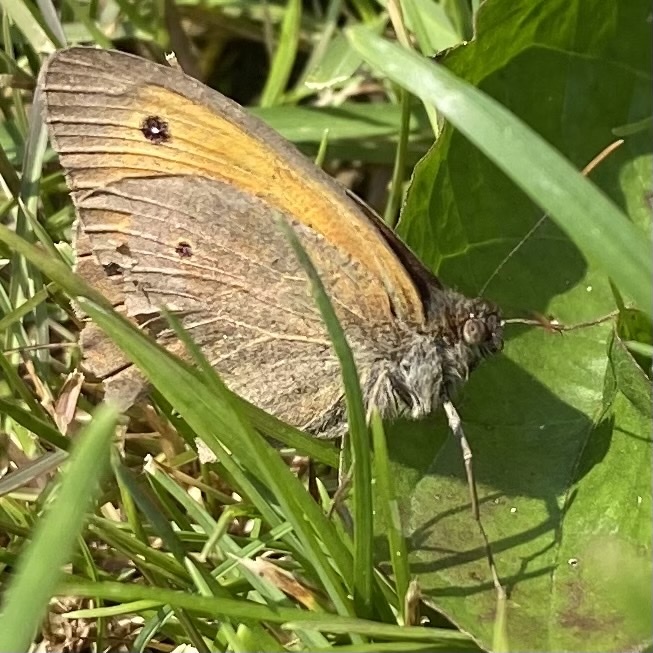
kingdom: Animalia
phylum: Arthropoda
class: Insecta
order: Lepidoptera
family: Nymphalidae
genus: Maniola
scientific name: Maniola jurtina
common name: Meadow brown
